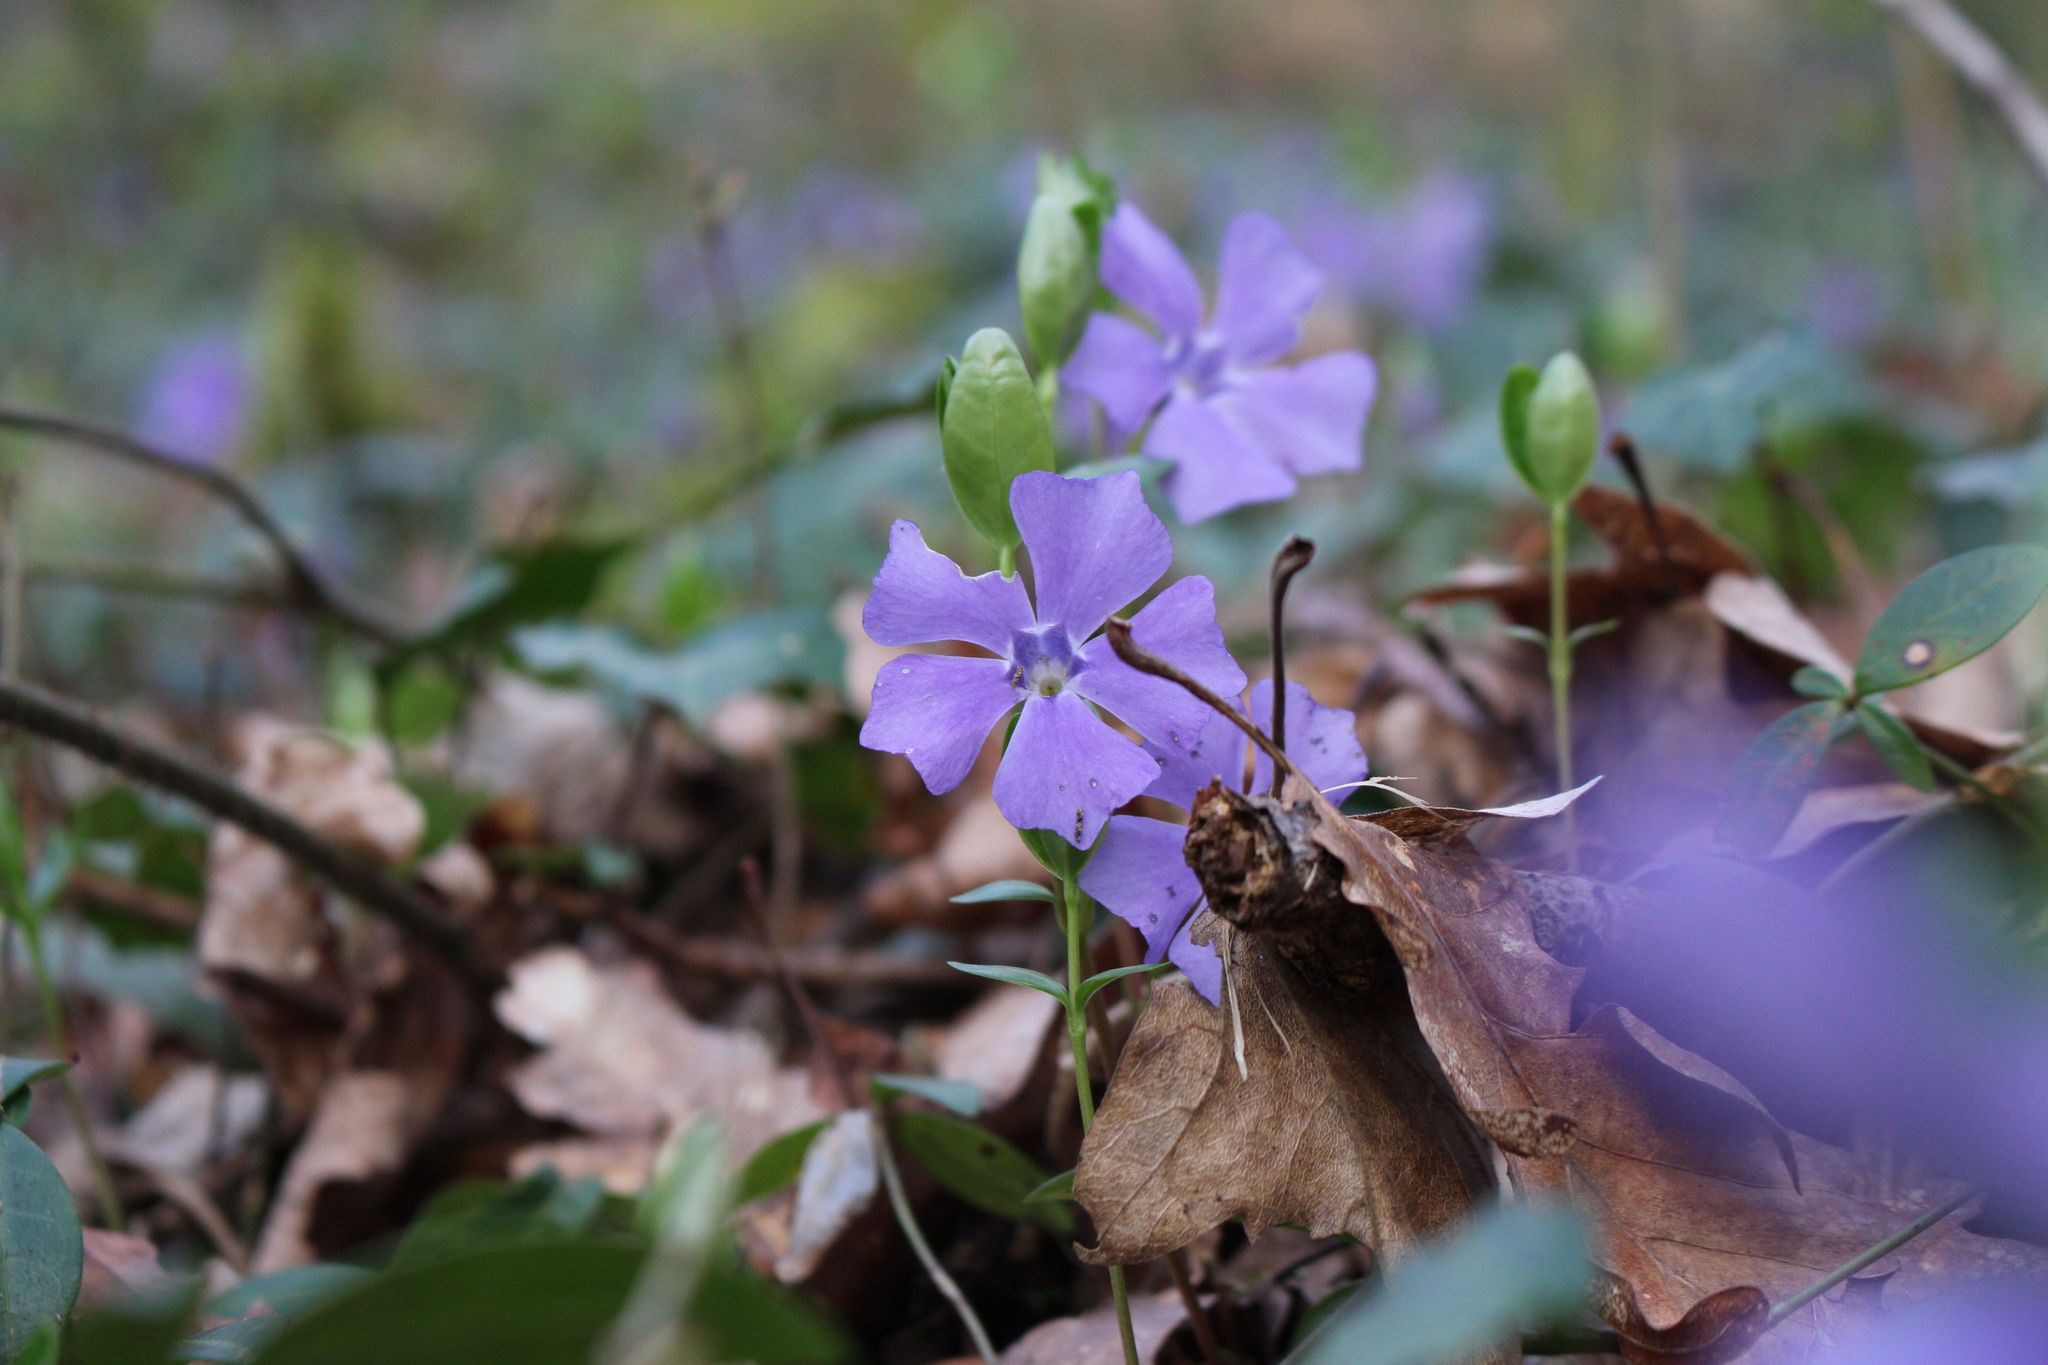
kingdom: Plantae
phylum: Tracheophyta
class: Magnoliopsida
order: Gentianales
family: Apocynaceae
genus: Vinca
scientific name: Vinca major
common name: Greater periwinkle
